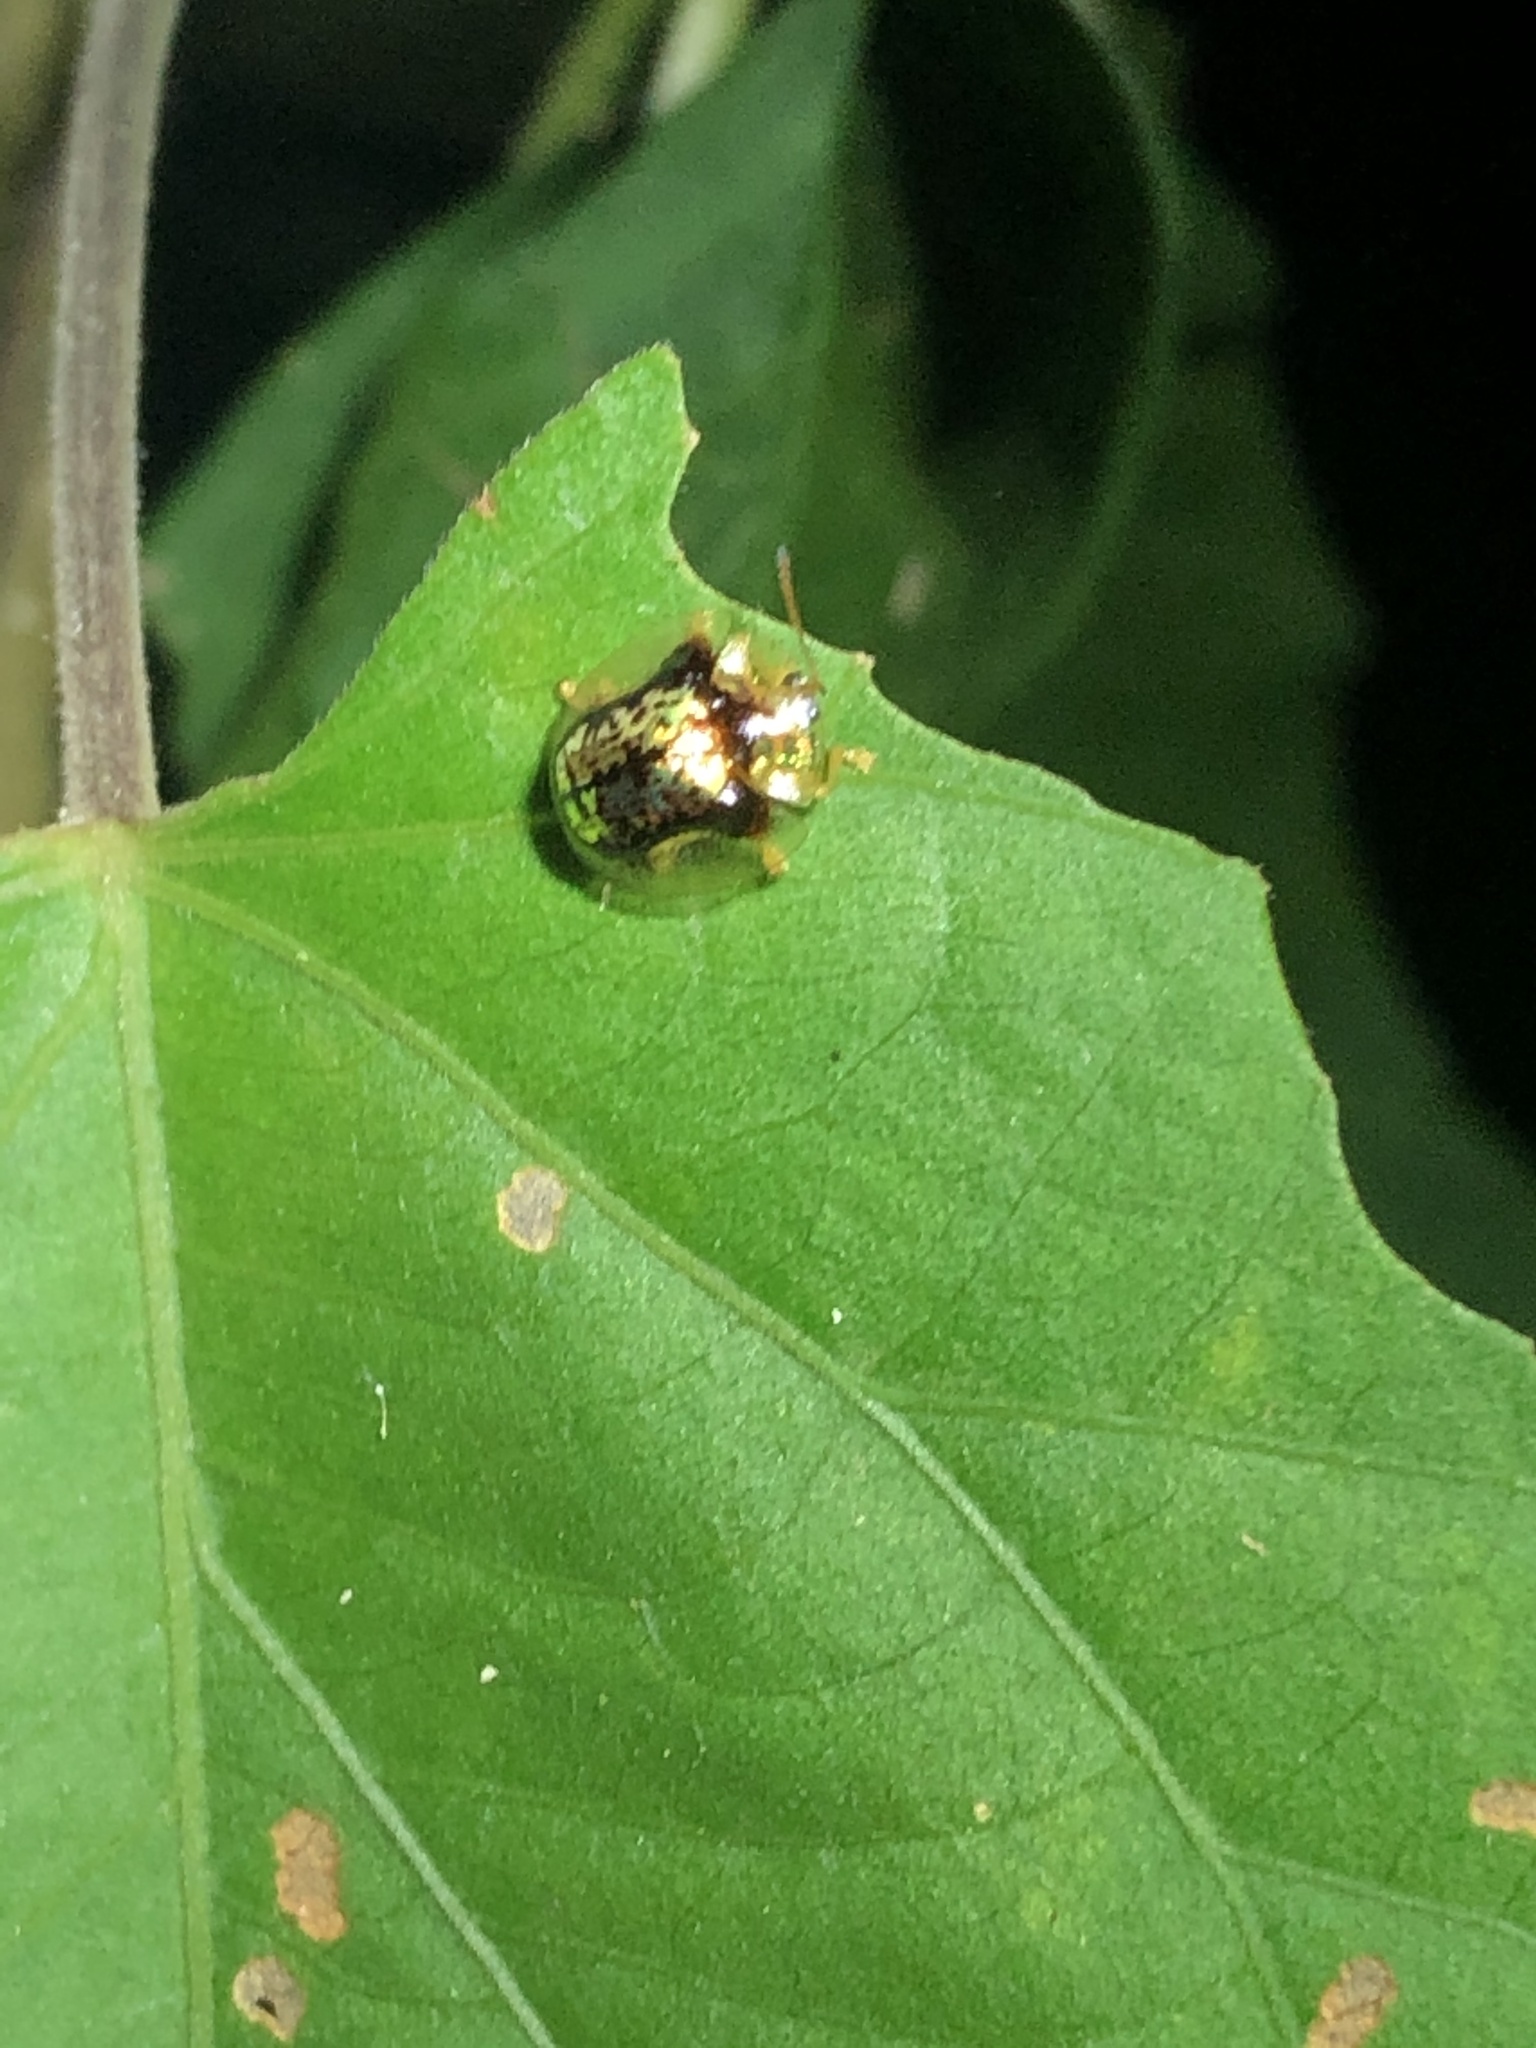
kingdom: Animalia
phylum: Arthropoda
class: Insecta
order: Coleoptera
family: Chrysomelidae
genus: Coptocycla
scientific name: Coptocycla usta
